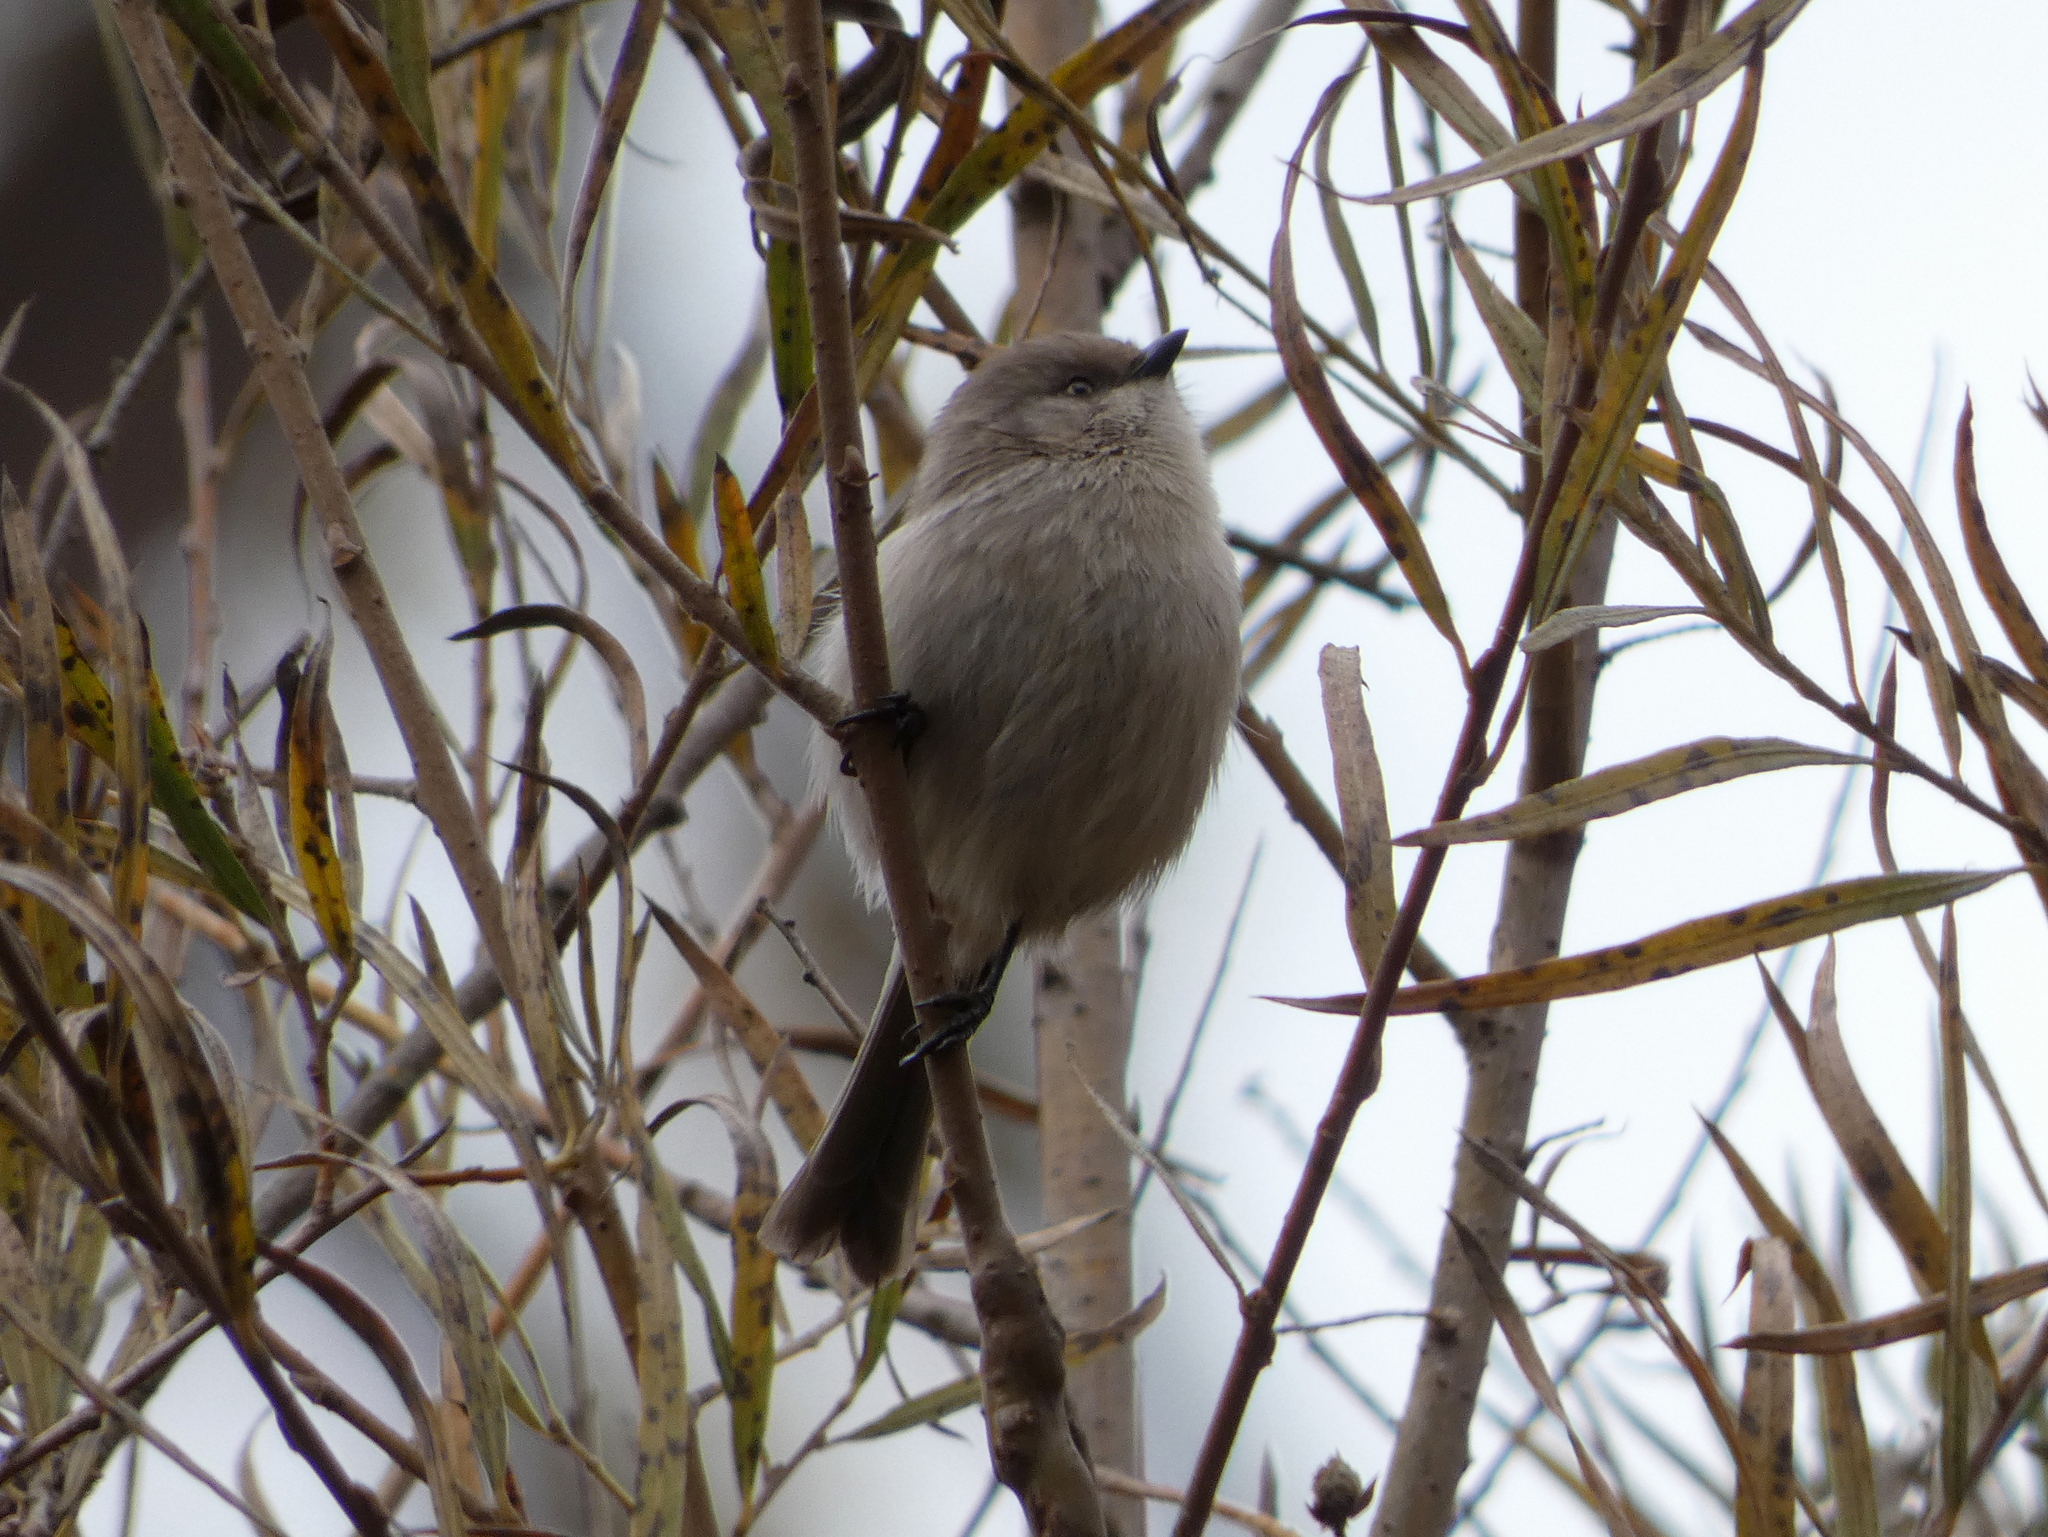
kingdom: Animalia
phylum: Chordata
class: Aves
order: Passeriformes
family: Aegithalidae
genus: Psaltriparus
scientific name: Psaltriparus minimus
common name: American bushtit
